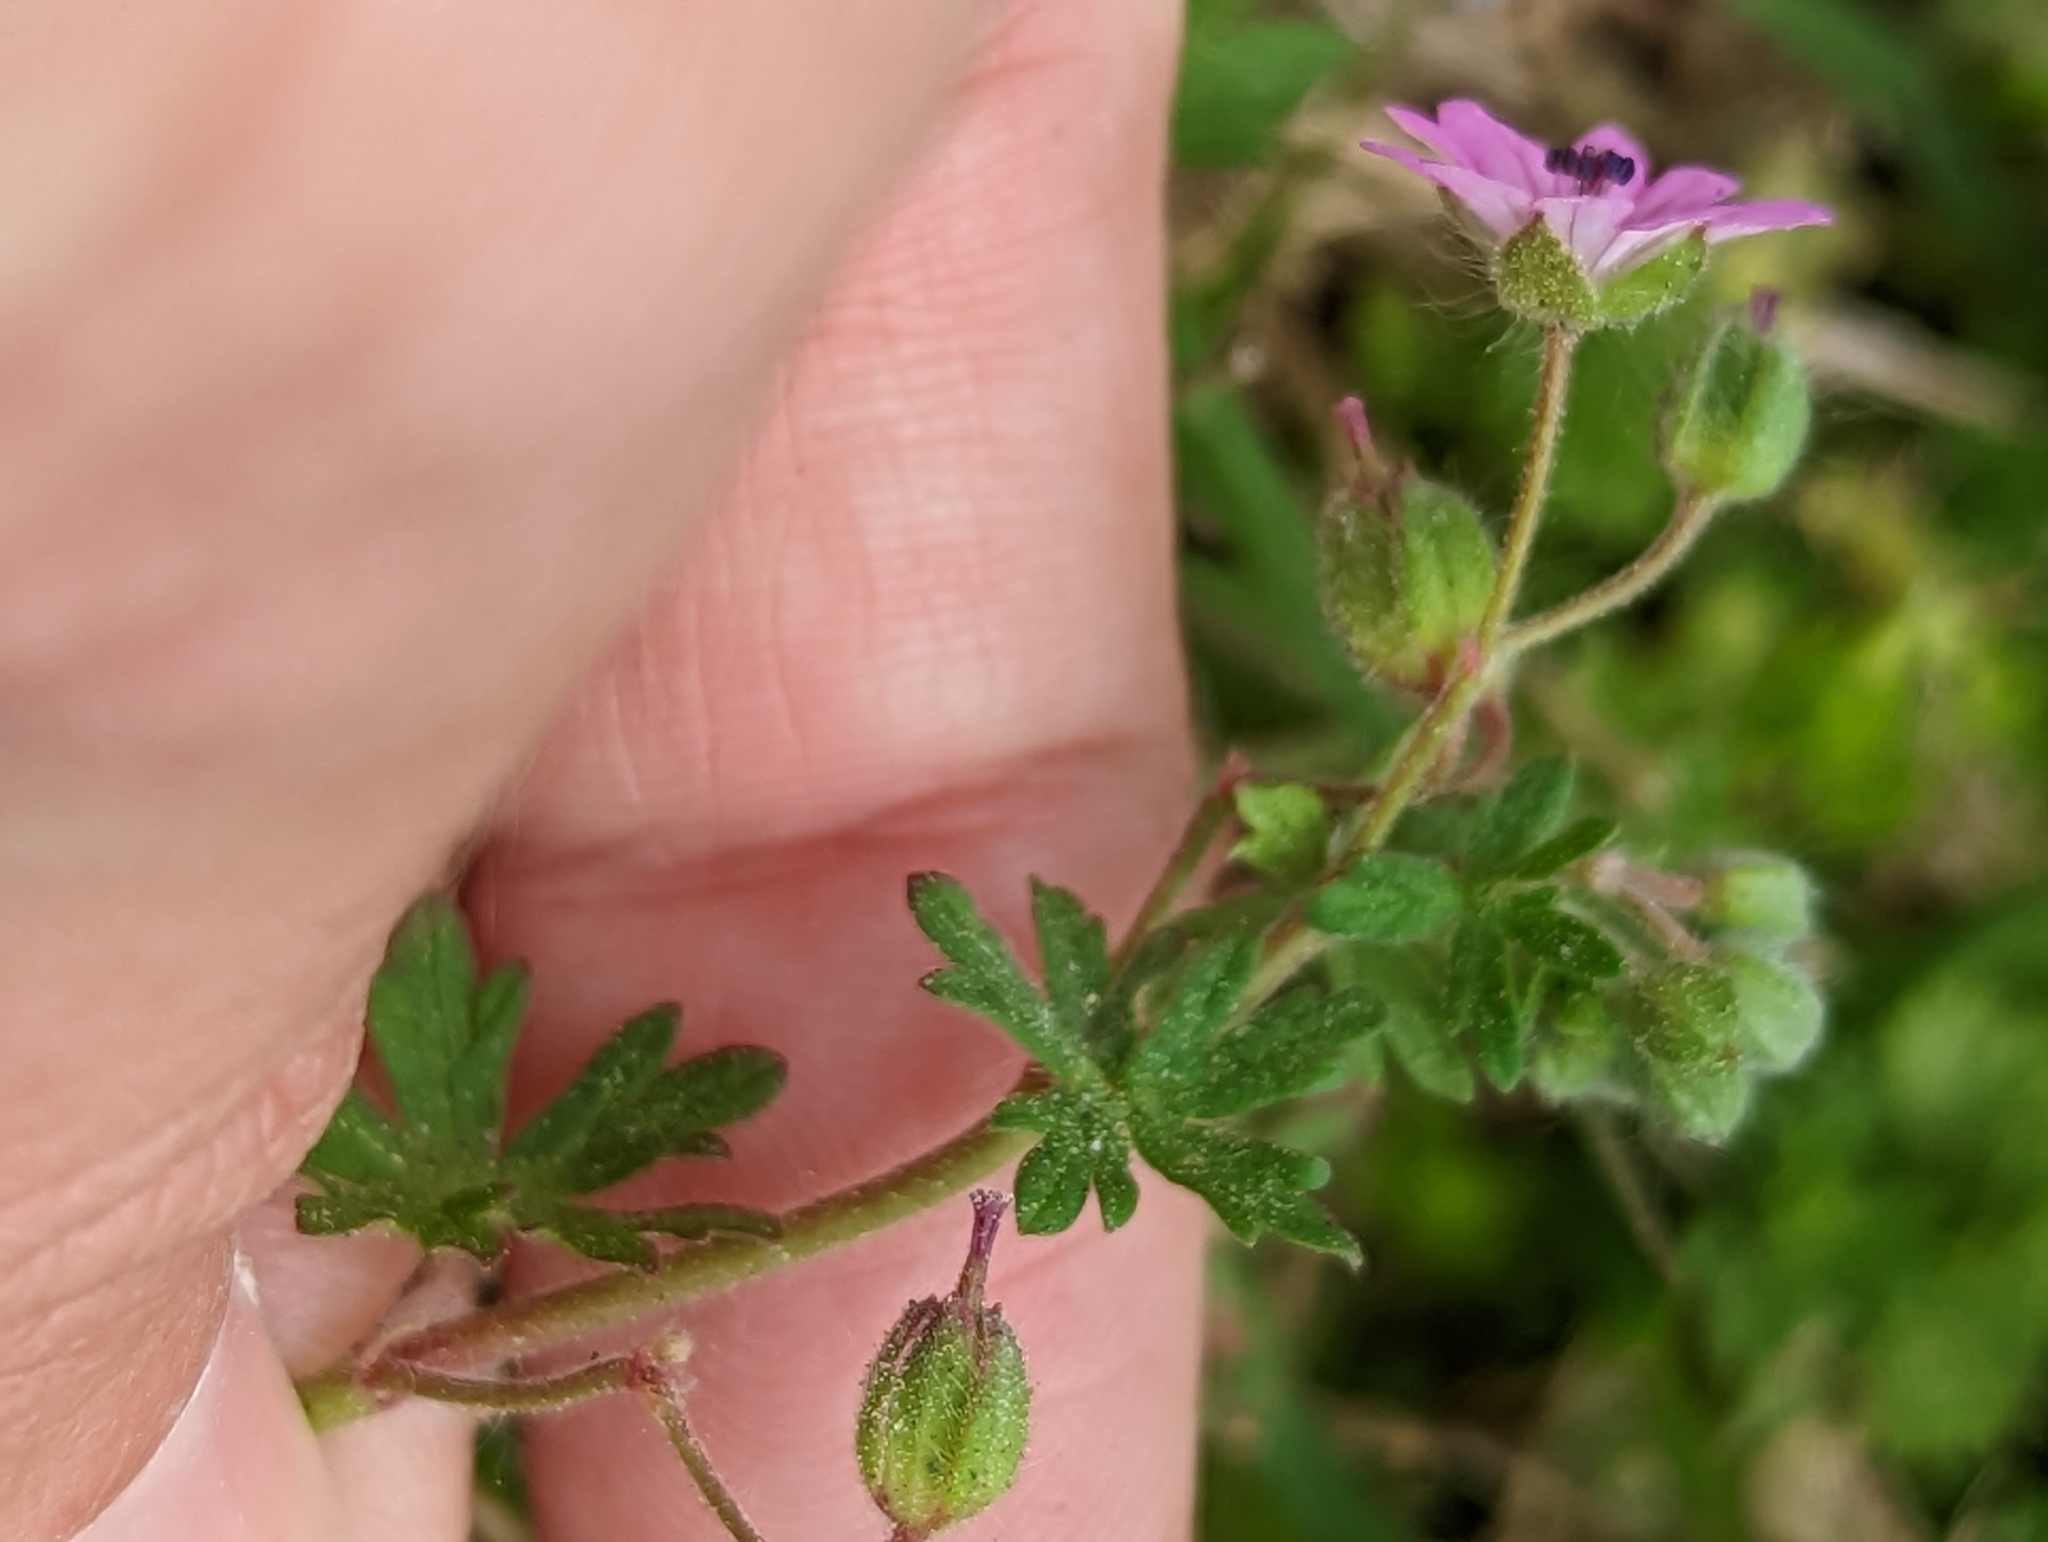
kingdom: Plantae
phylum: Tracheophyta
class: Magnoliopsida
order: Geraniales
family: Geraniaceae
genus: Geranium
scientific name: Geranium molle
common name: Dove's-foot crane's-bill
